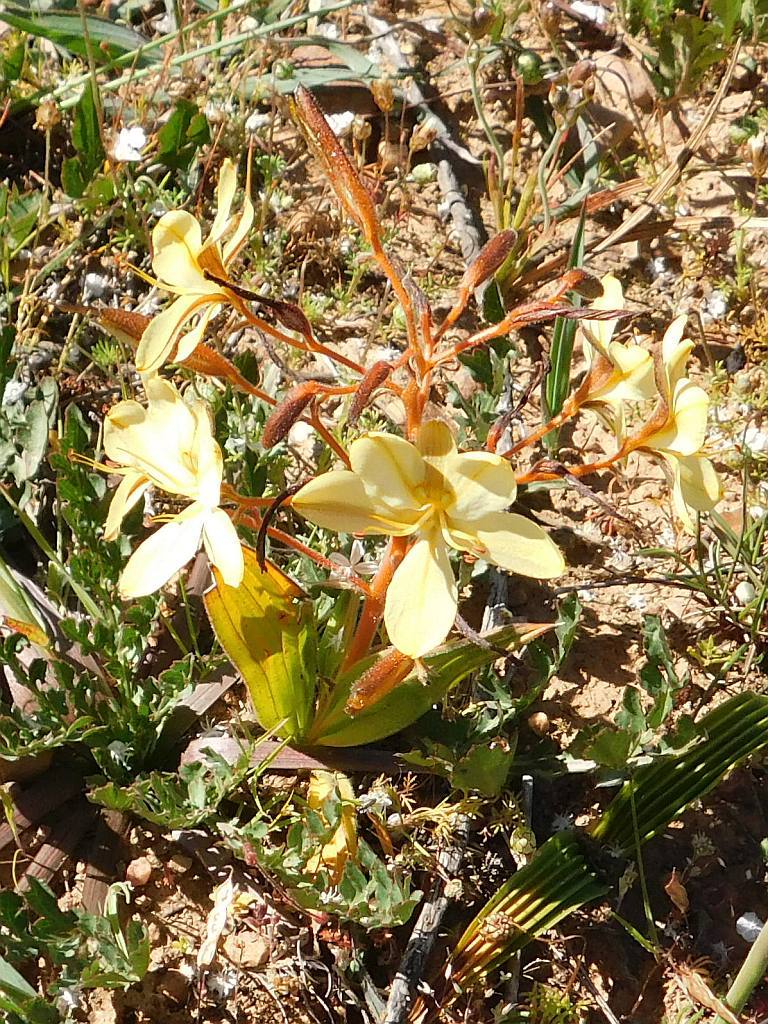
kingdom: Plantae
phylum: Tracheophyta
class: Liliopsida
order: Commelinales
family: Haemodoraceae
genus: Wachendorfia
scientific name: Wachendorfia paniculata
